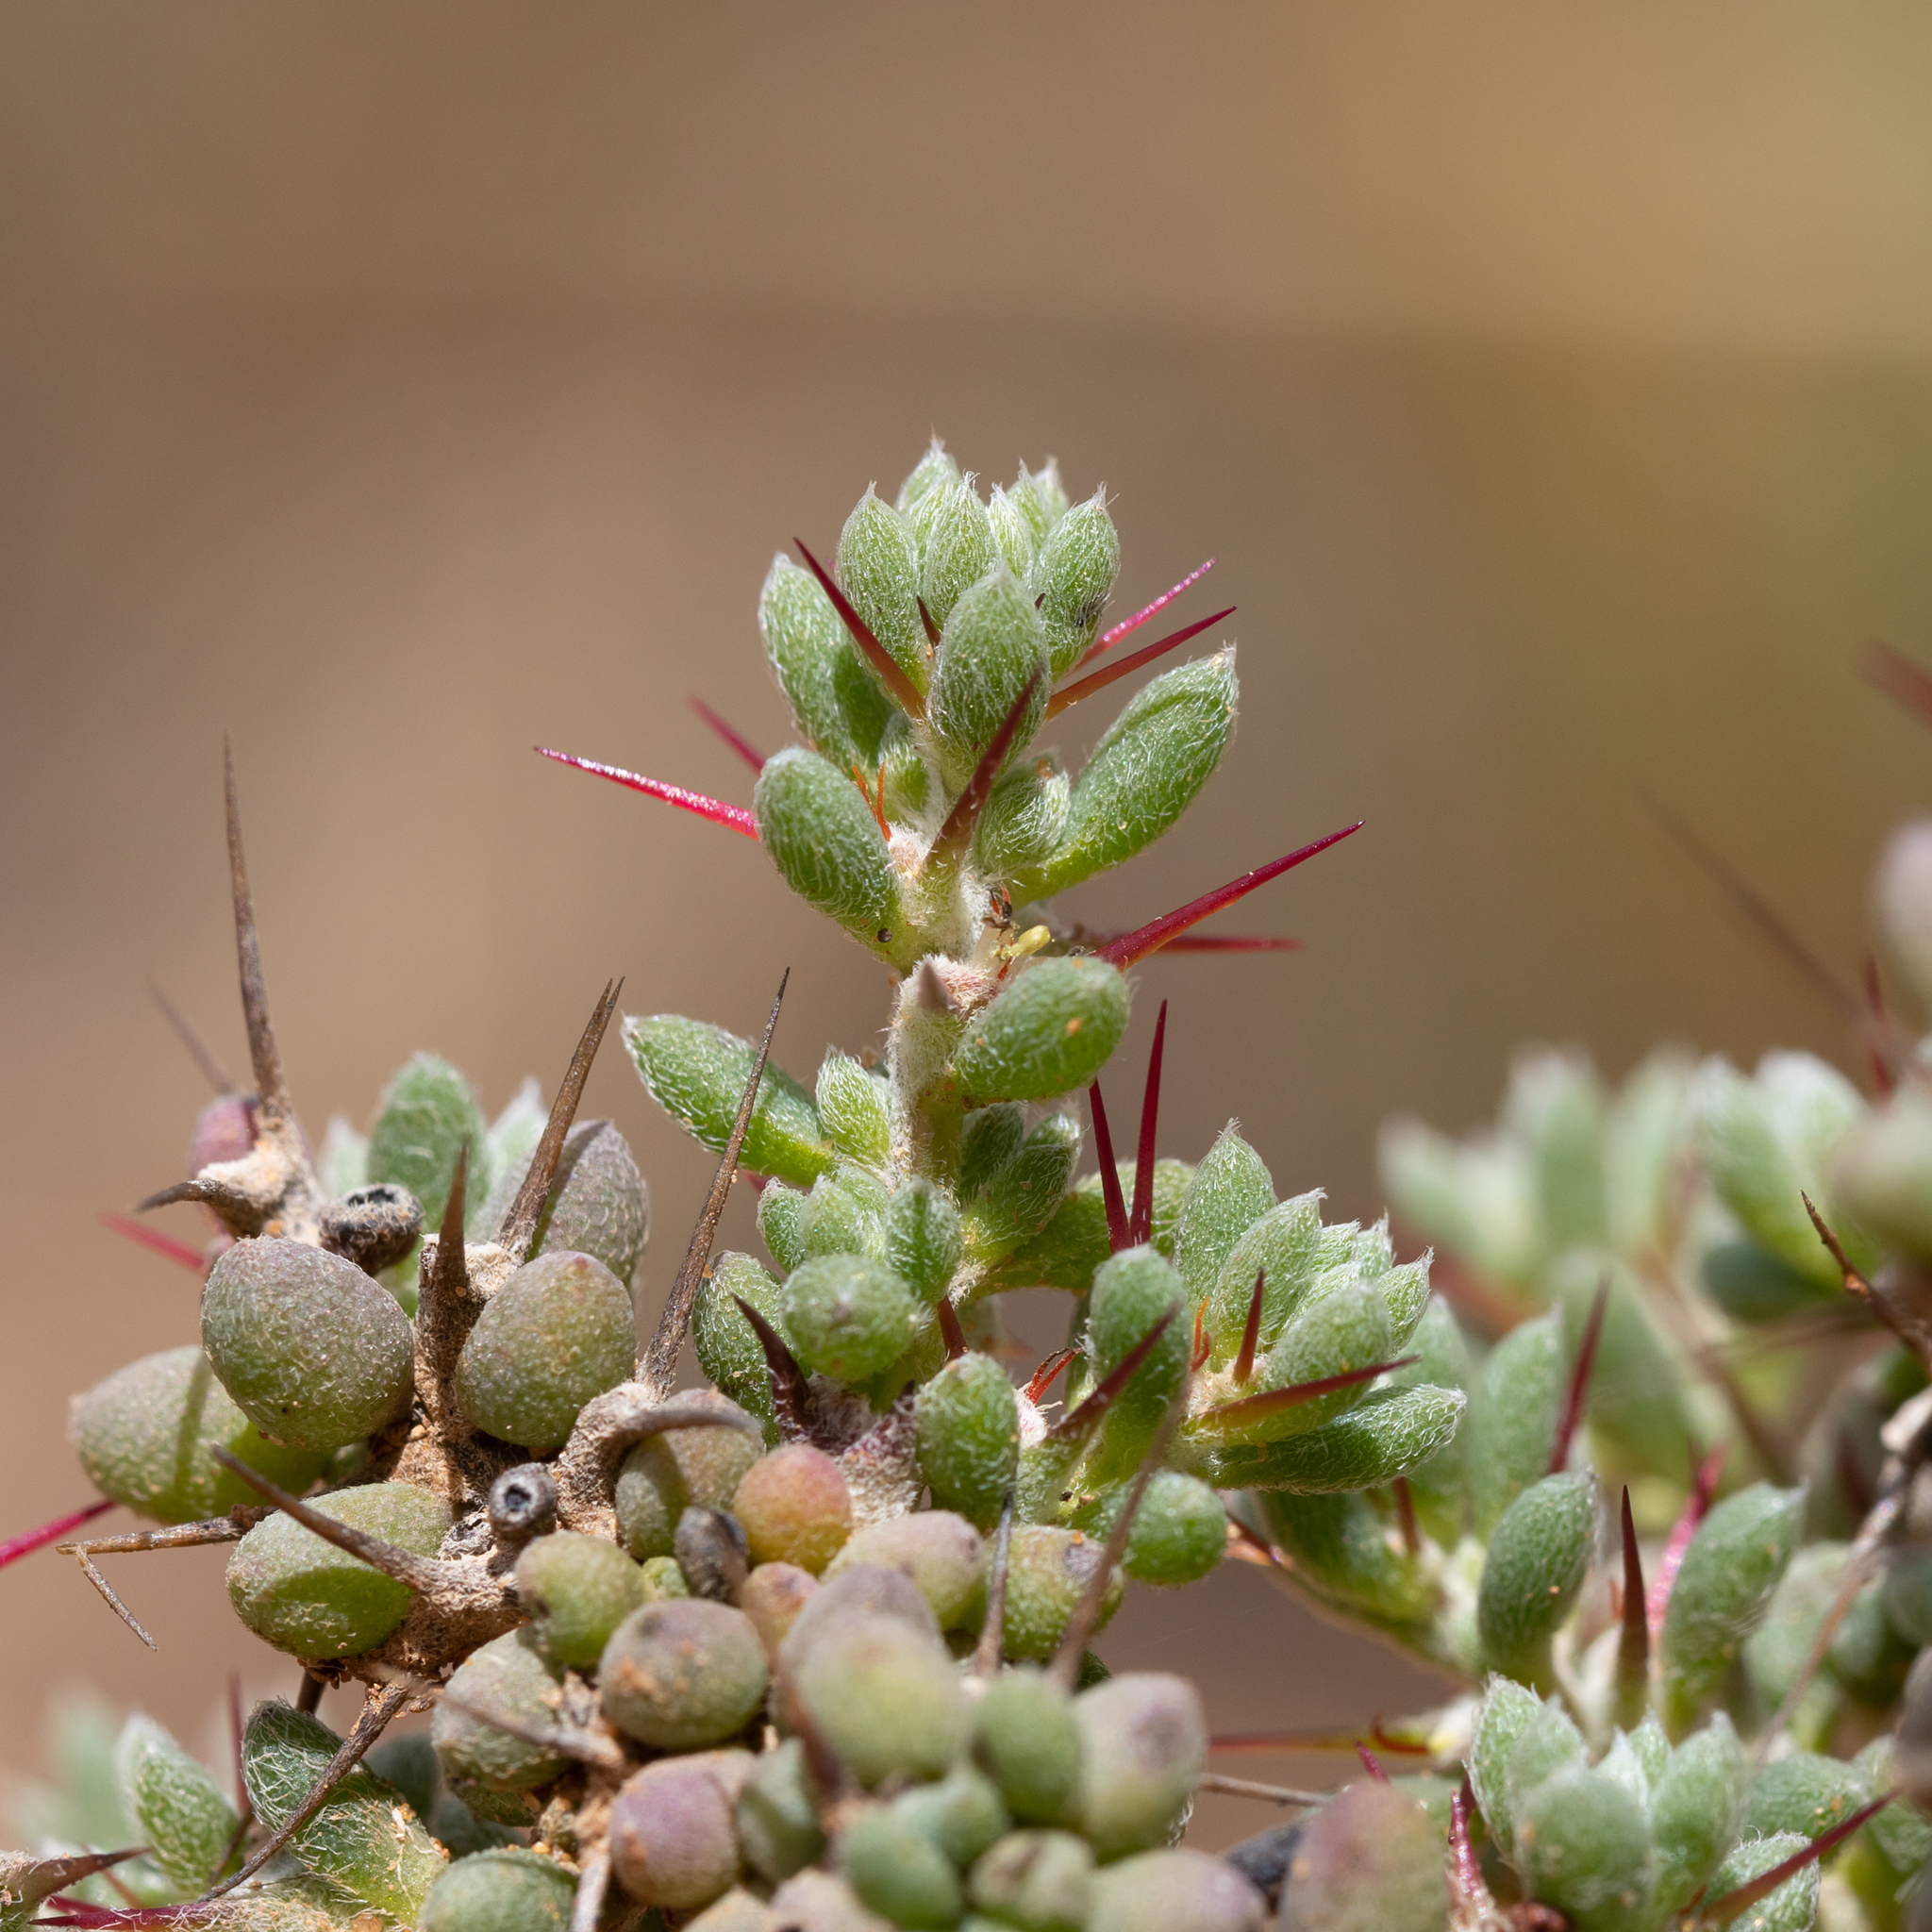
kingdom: Plantae
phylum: Tracheophyta
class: Magnoliopsida
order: Caryophyllales
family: Amaranthaceae
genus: Sclerolaena
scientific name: Sclerolaena obliquicuspis
